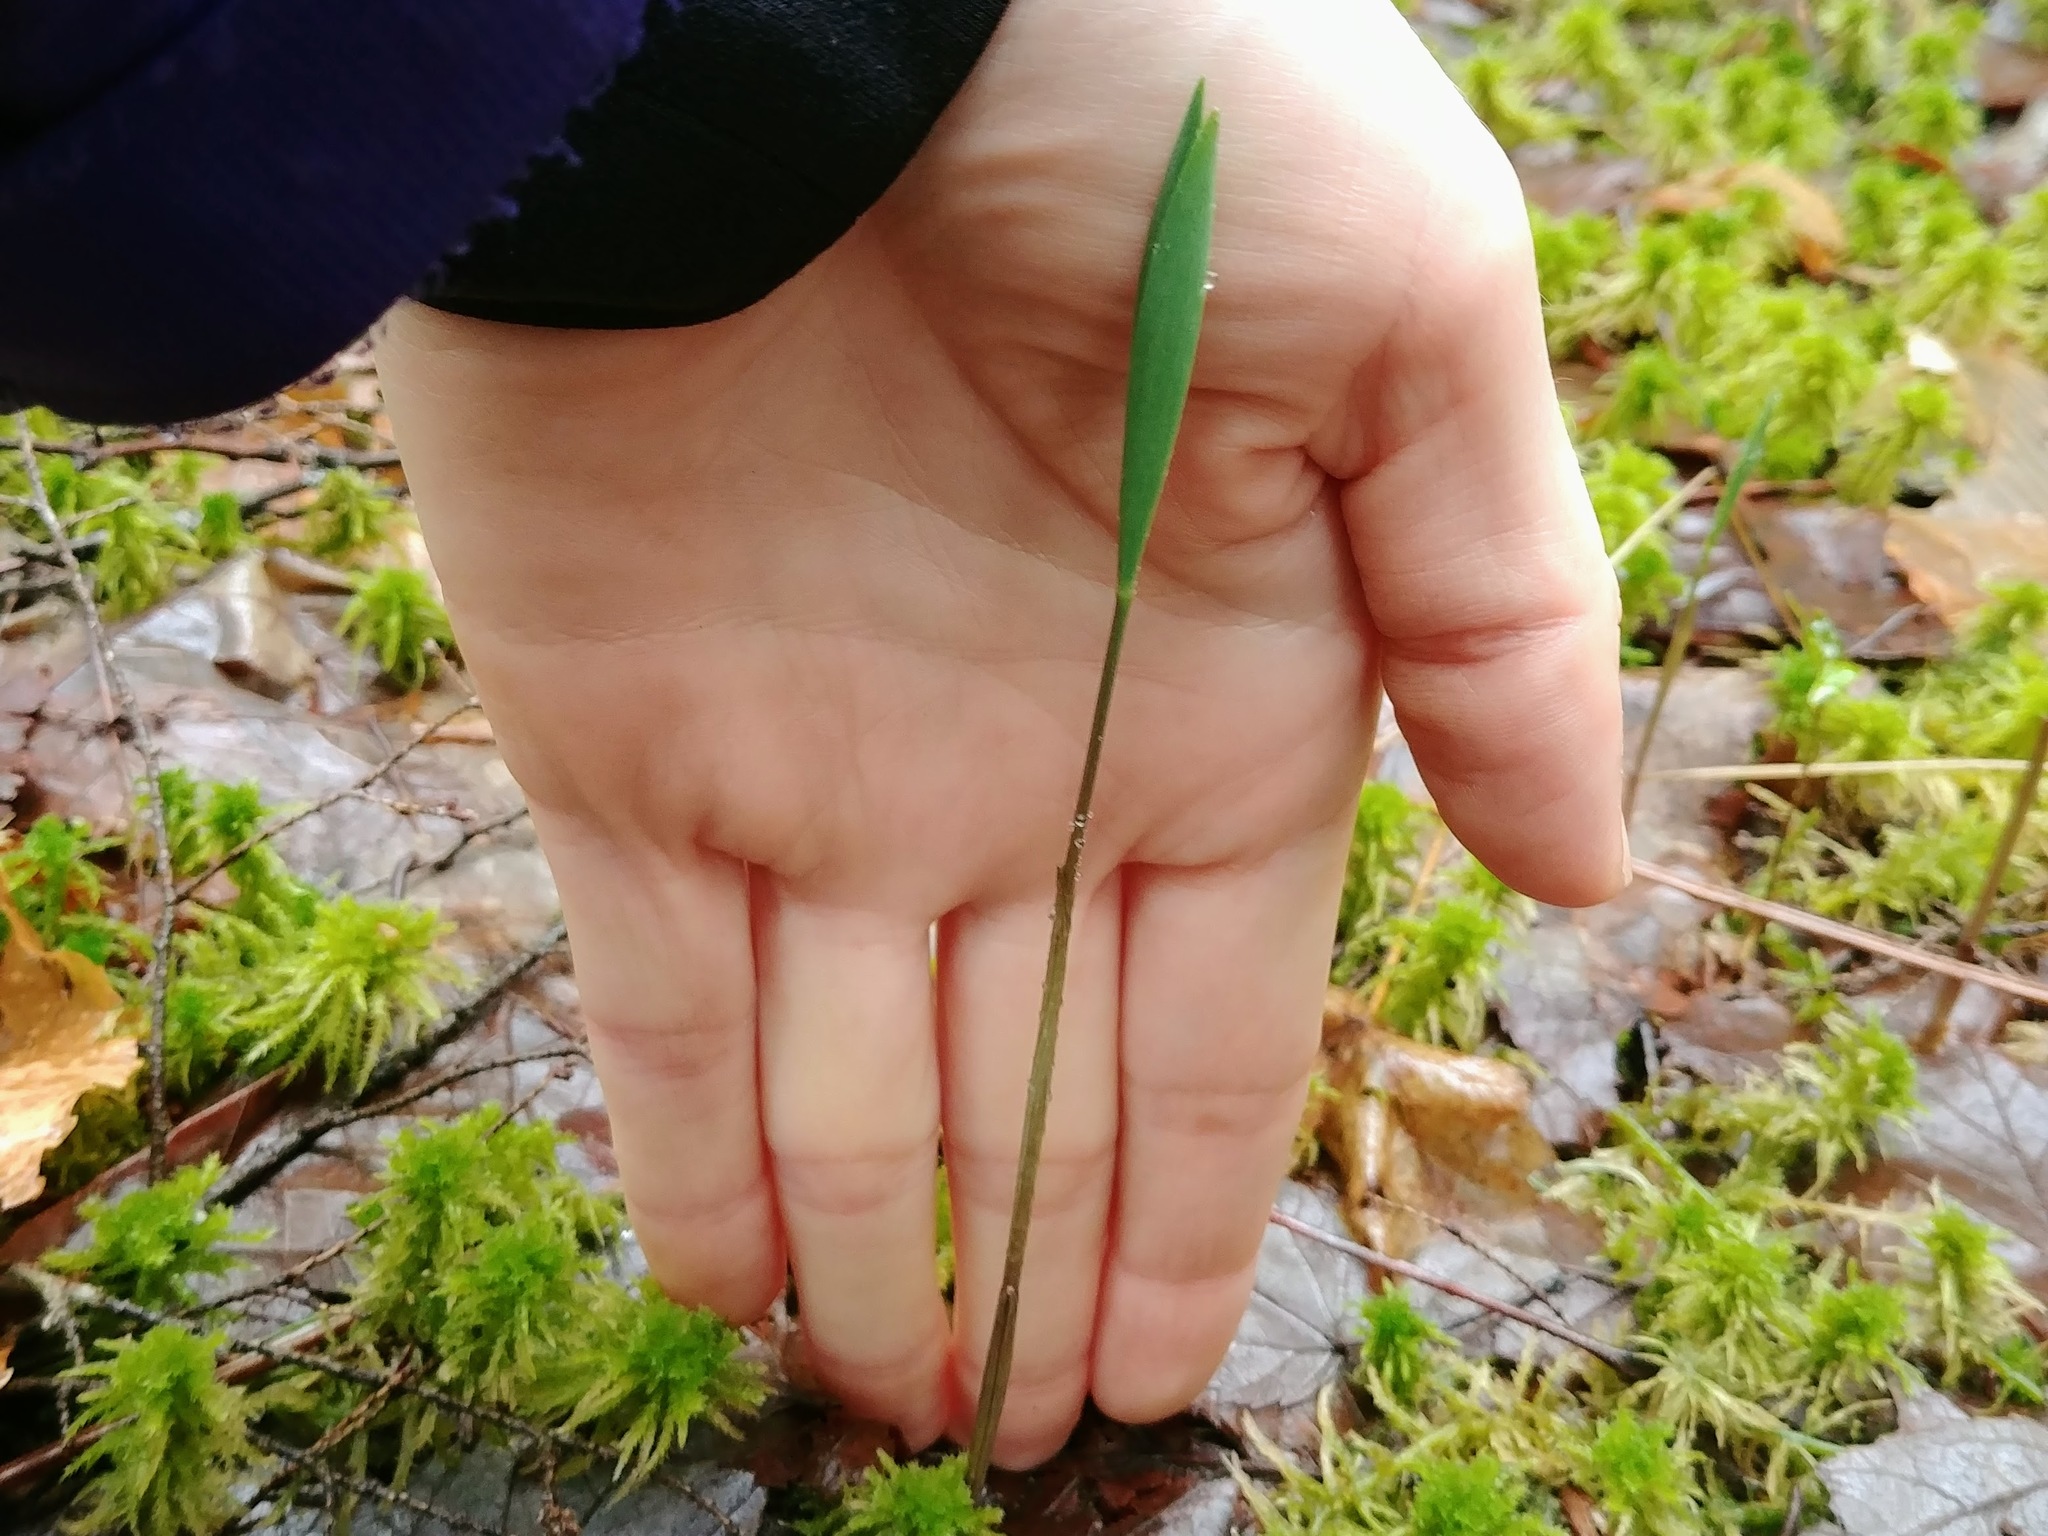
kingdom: Plantae
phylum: Tracheophyta
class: Liliopsida
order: Liliales
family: Colchicaceae
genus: Uvularia
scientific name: Uvularia sessilifolia
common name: Straw-lily
